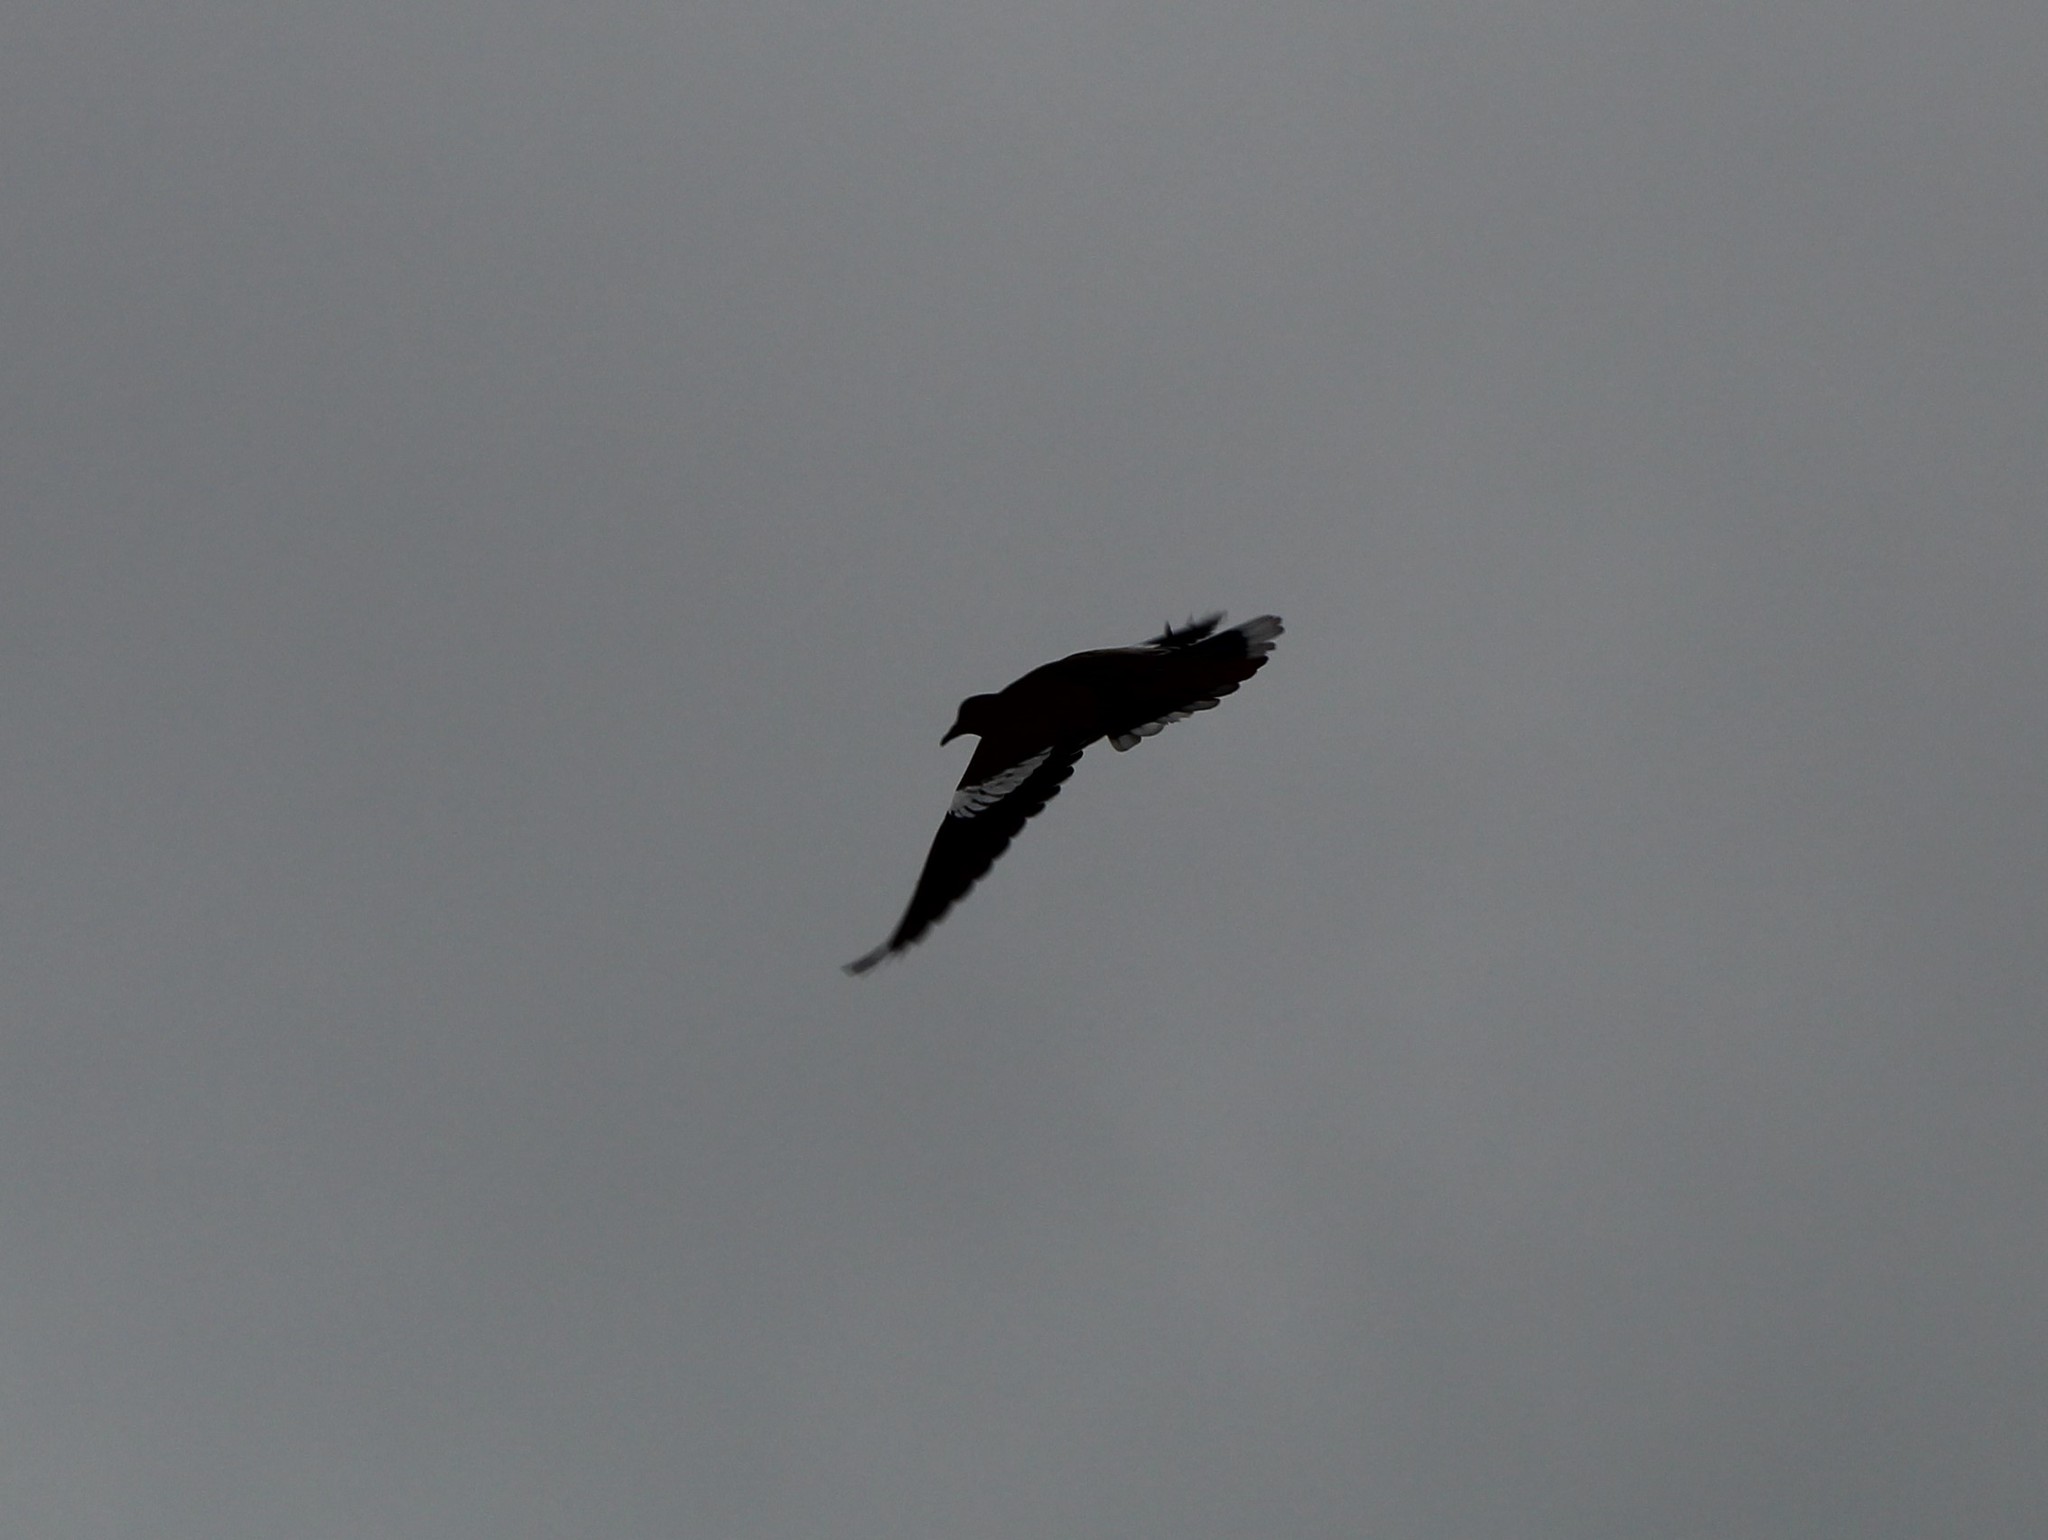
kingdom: Animalia
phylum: Chordata
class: Aves
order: Columbiformes
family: Columbidae
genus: Zenaida
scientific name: Zenaida asiatica
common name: White-winged dove
